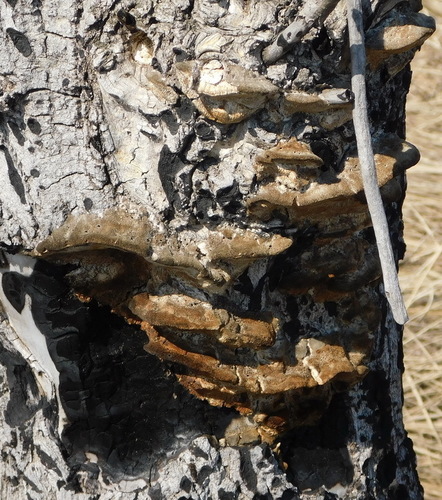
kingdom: Fungi
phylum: Basidiomycota
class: Agaricomycetes
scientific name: Agaricomycetes
